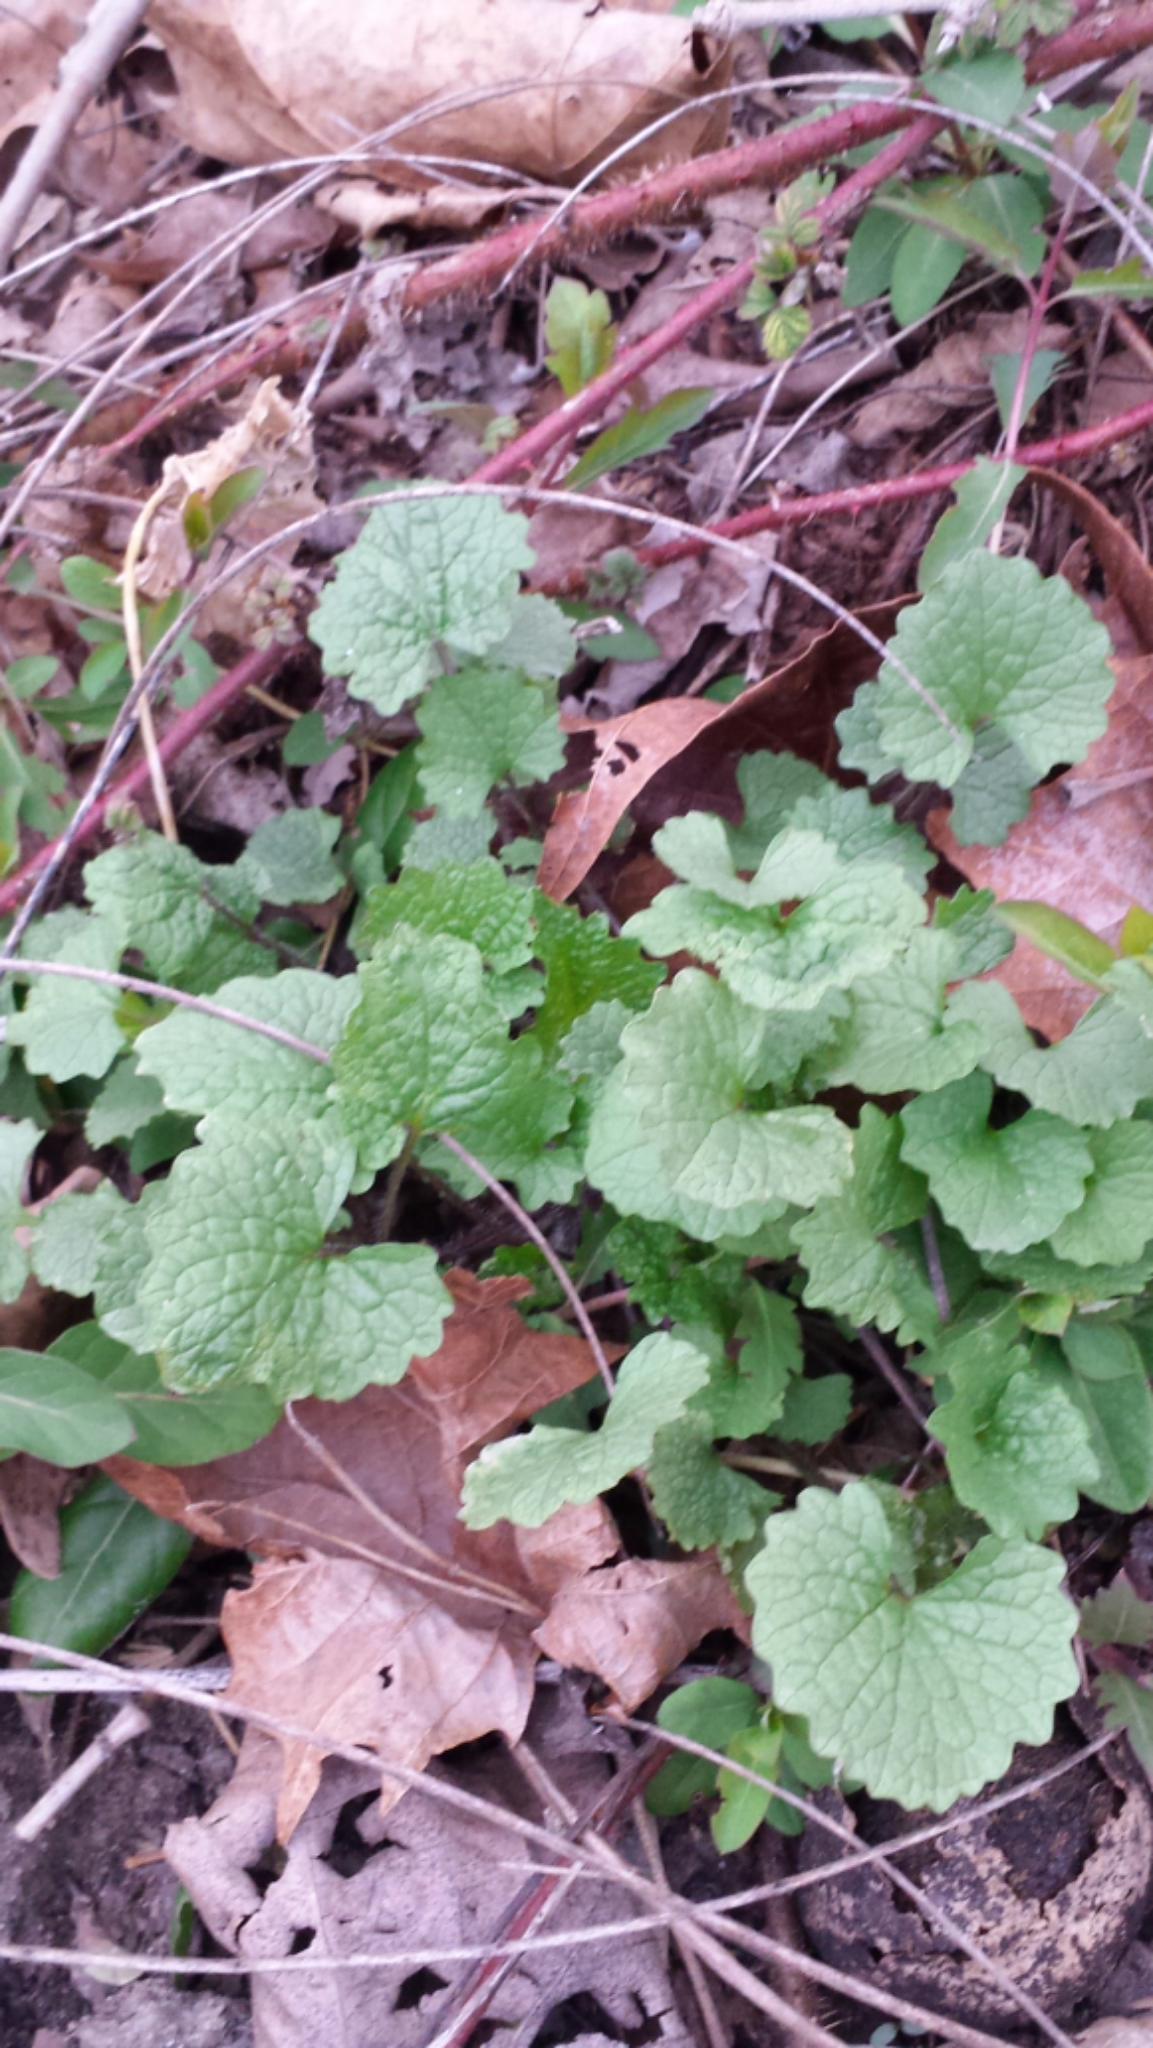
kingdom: Plantae
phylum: Tracheophyta
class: Magnoliopsida
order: Brassicales
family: Brassicaceae
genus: Alliaria
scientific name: Alliaria petiolata
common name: Garlic mustard
